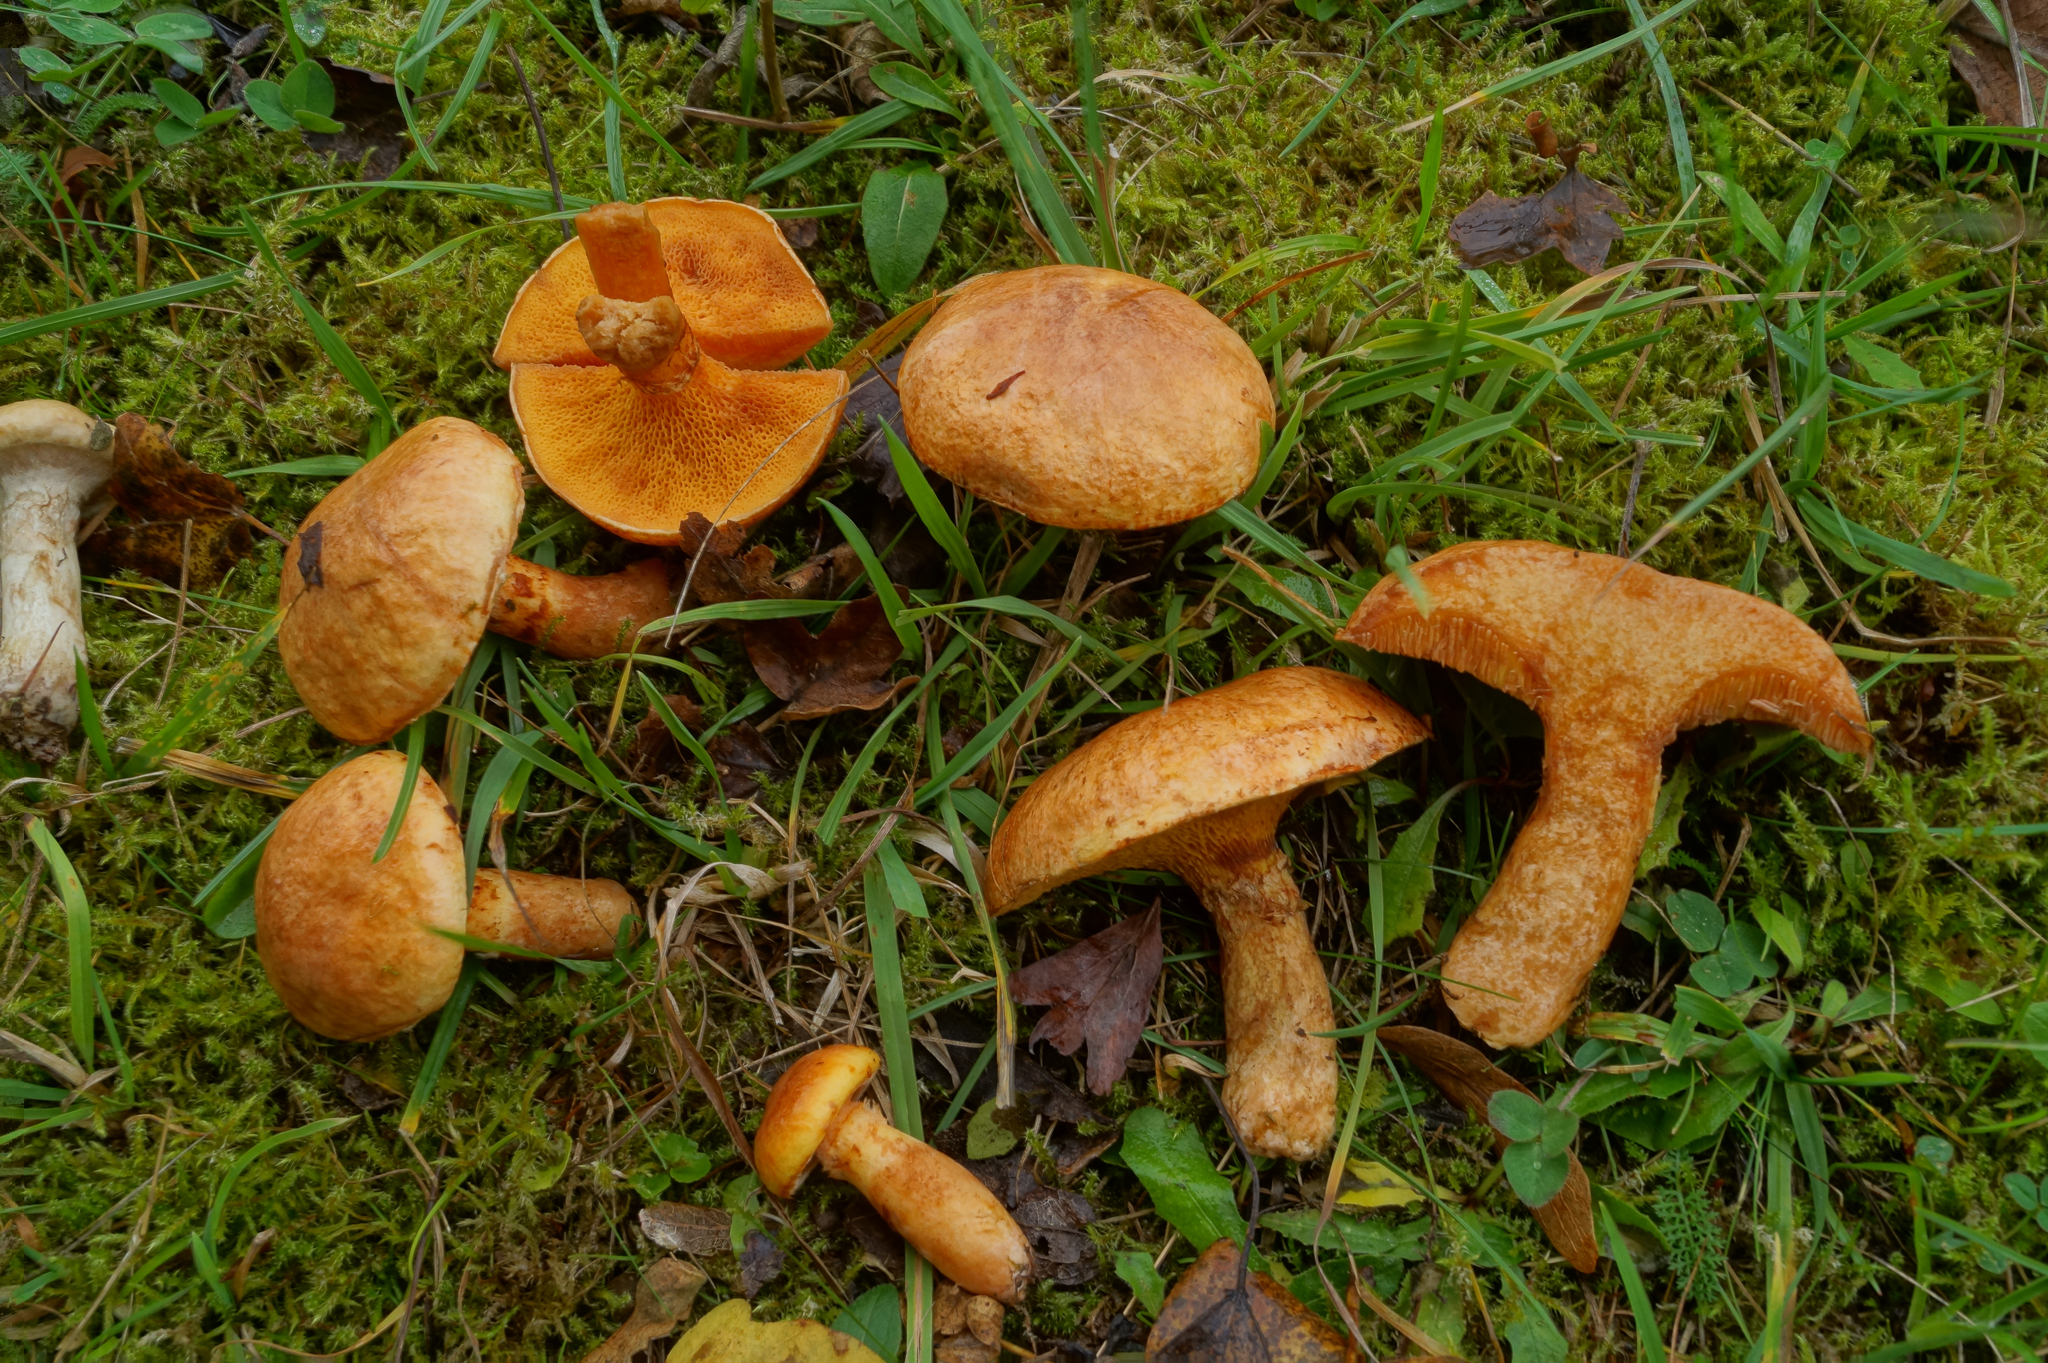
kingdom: Fungi
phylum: Basidiomycota
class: Agaricomycetes
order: Boletales
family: Suillaceae
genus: Suillus
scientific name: Suillus tridentinus
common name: Orange larch bolete
